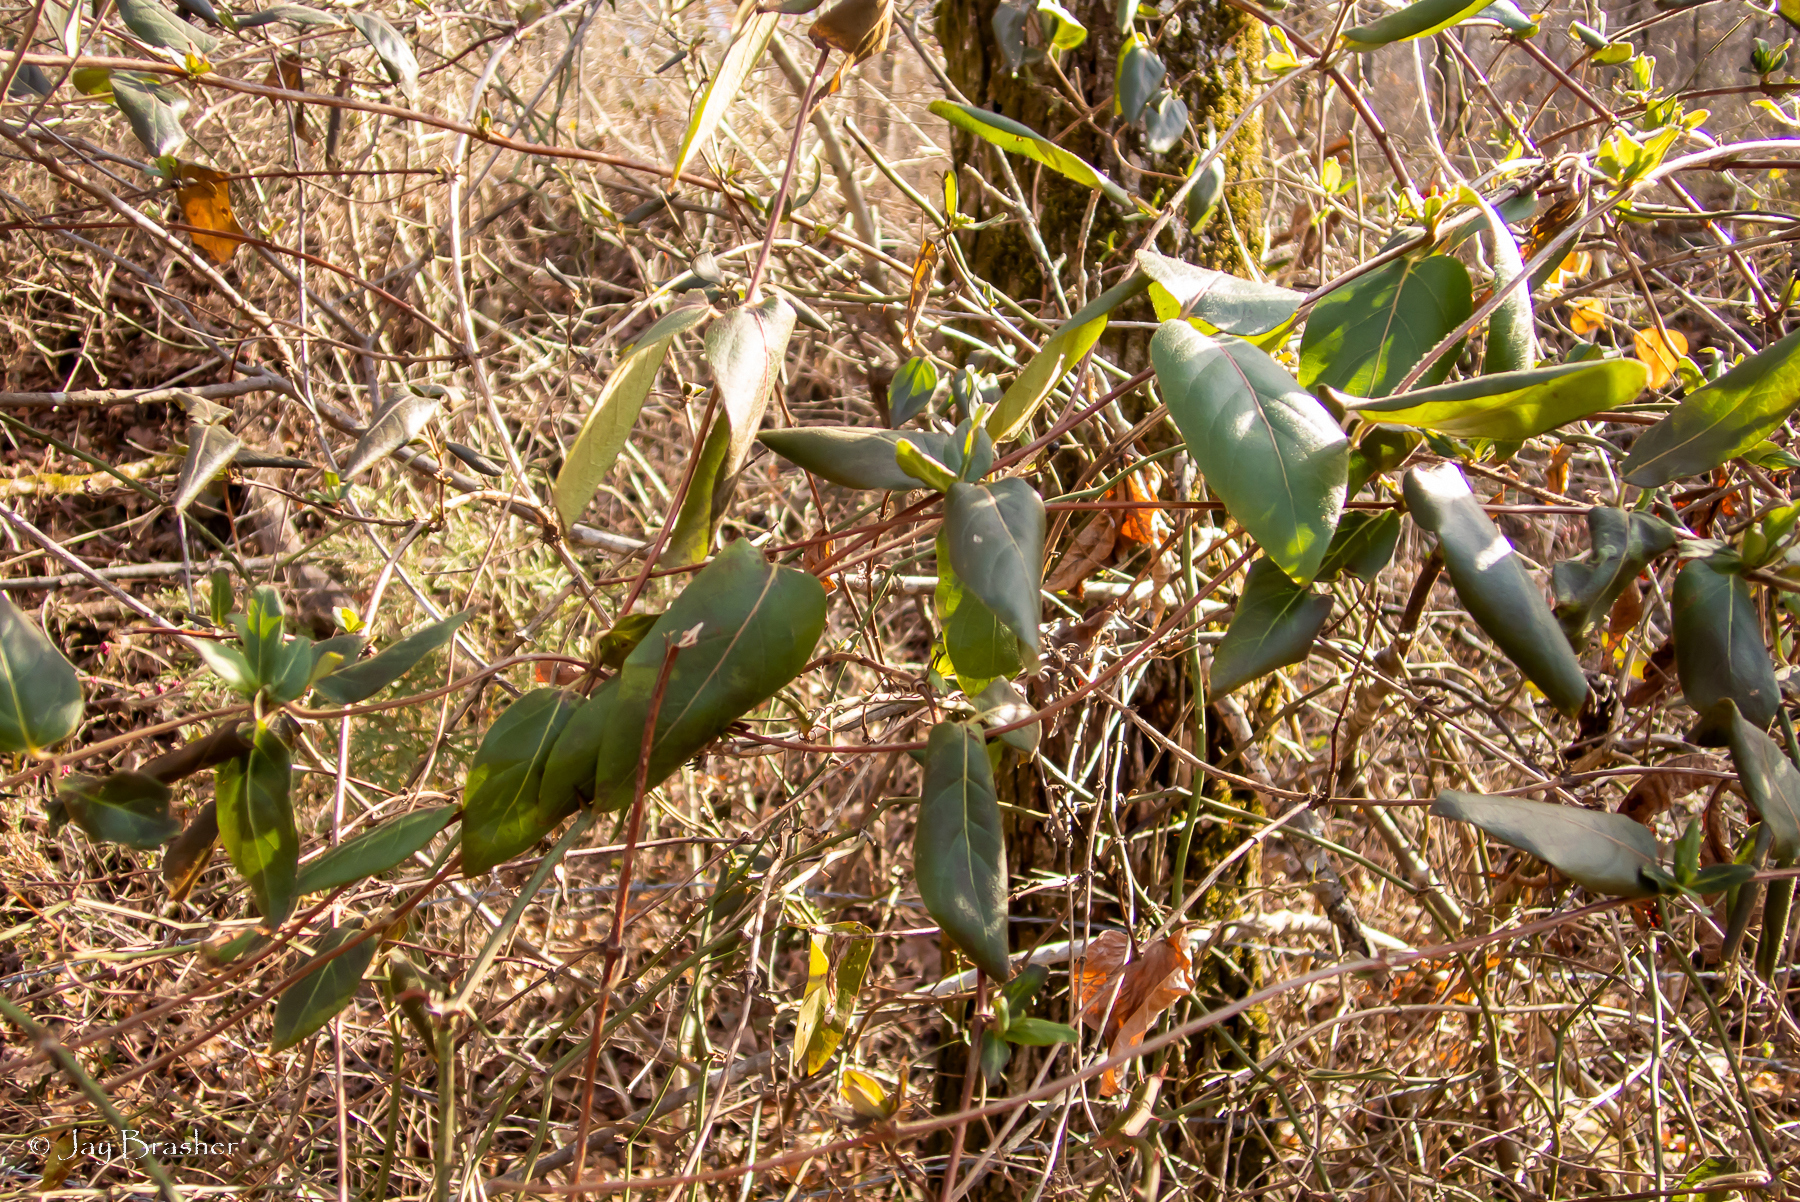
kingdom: Plantae
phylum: Tracheophyta
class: Magnoliopsida
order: Dipsacales
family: Caprifoliaceae
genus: Lonicera
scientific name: Lonicera japonica
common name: Japanese honeysuckle
